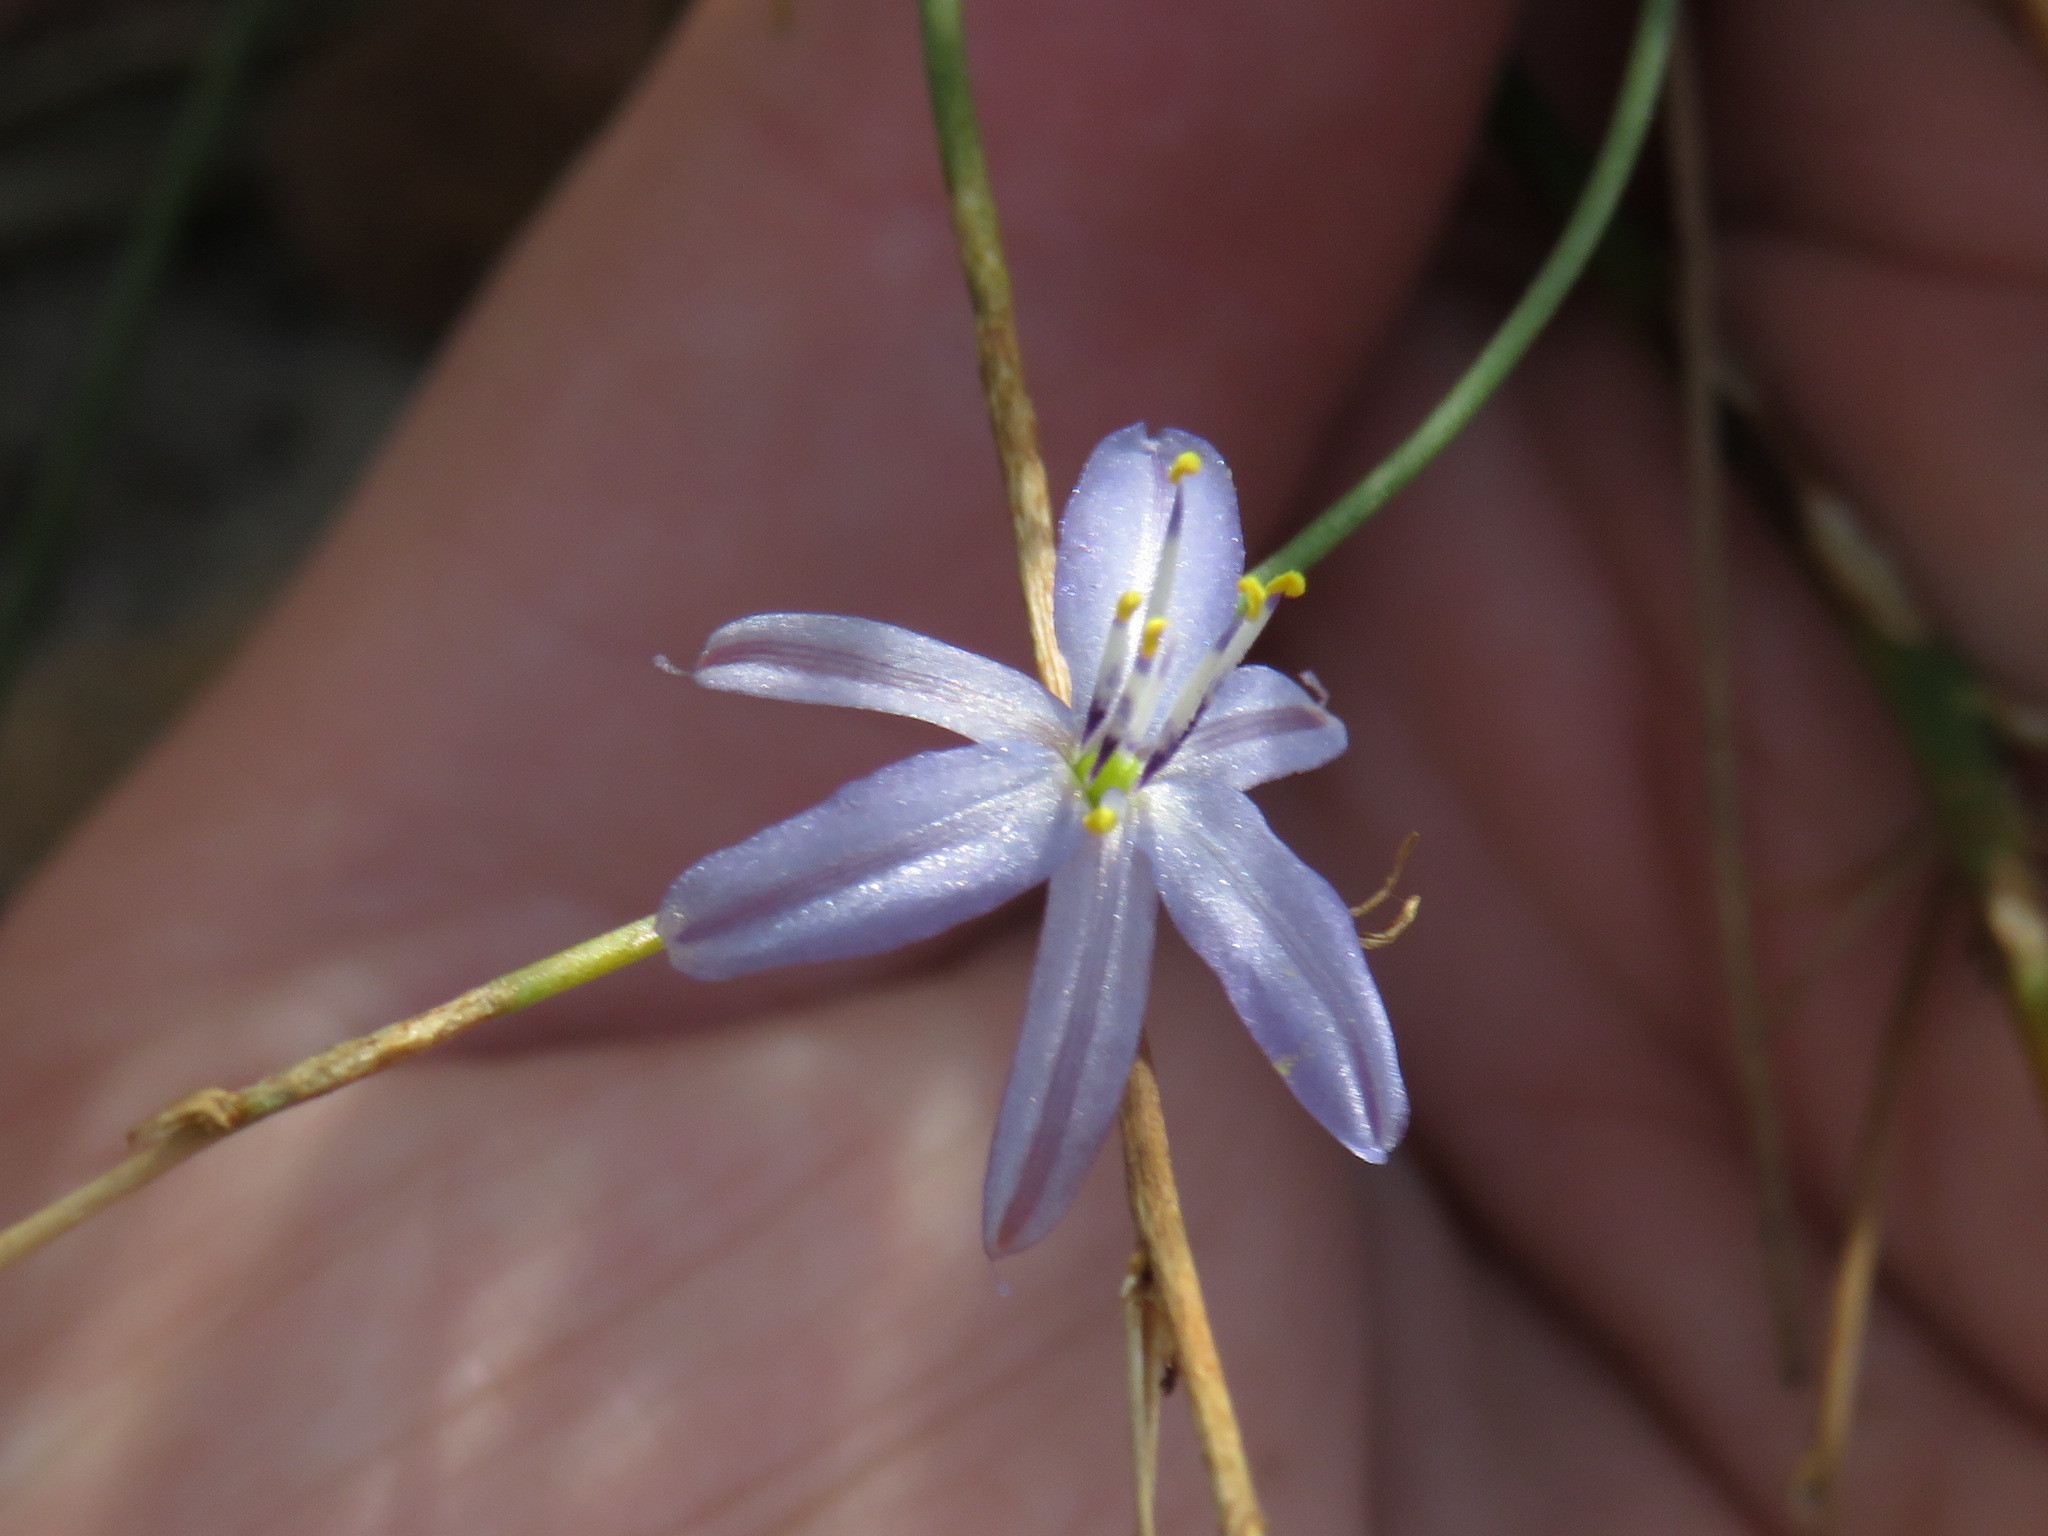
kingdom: Plantae
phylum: Tracheophyta
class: Liliopsida
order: Asparagales
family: Asphodelaceae
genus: Caesia
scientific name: Caesia contorta
